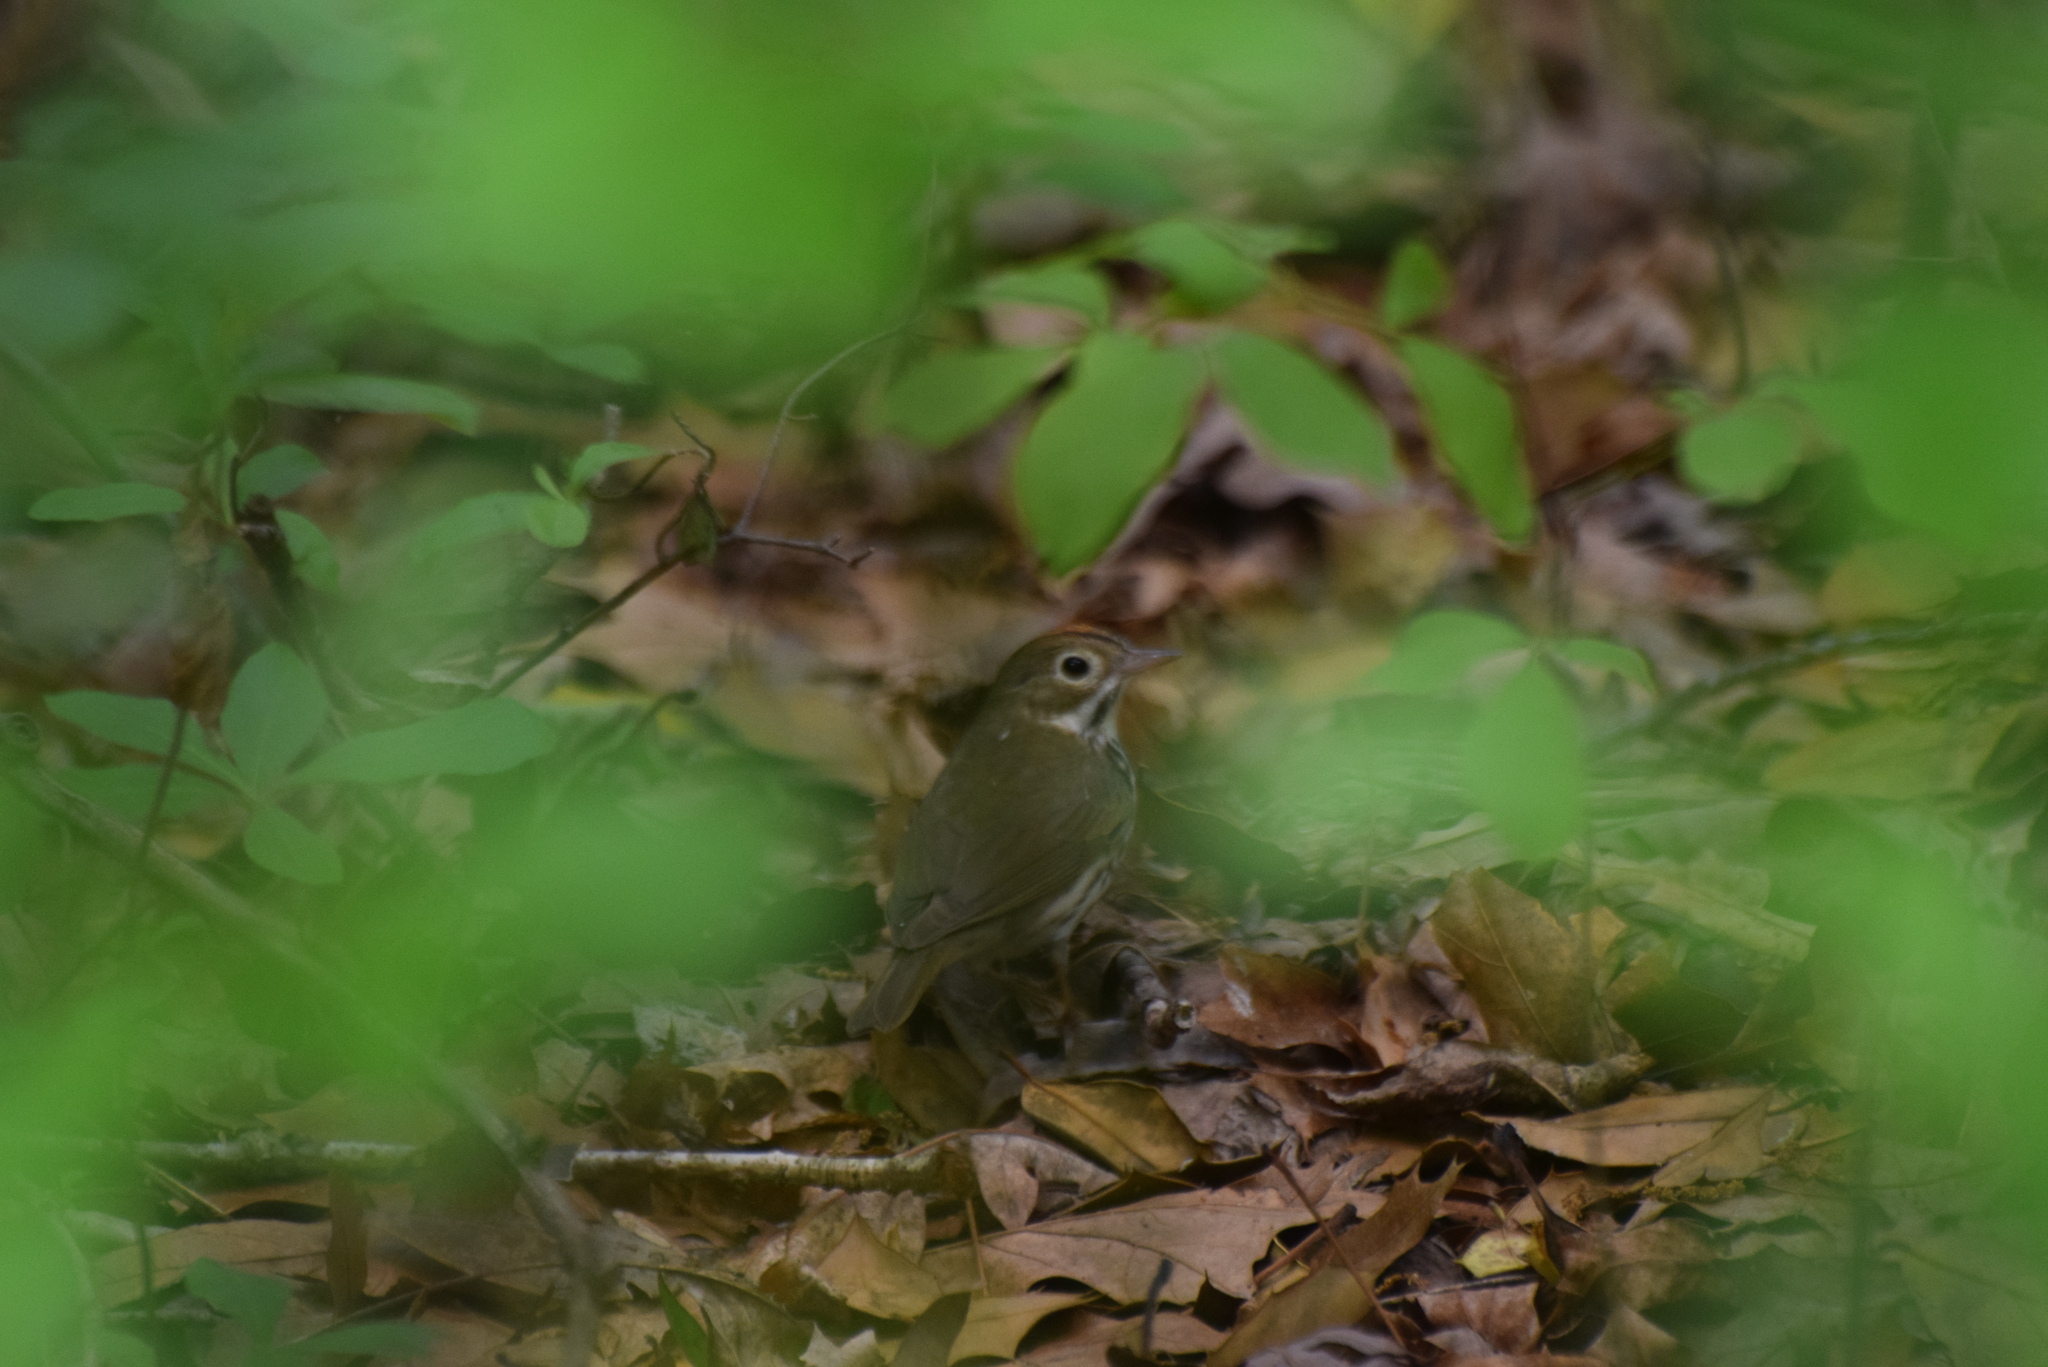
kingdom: Animalia
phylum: Chordata
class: Aves
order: Passeriformes
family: Parulidae
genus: Seiurus
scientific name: Seiurus aurocapilla
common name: Ovenbird
